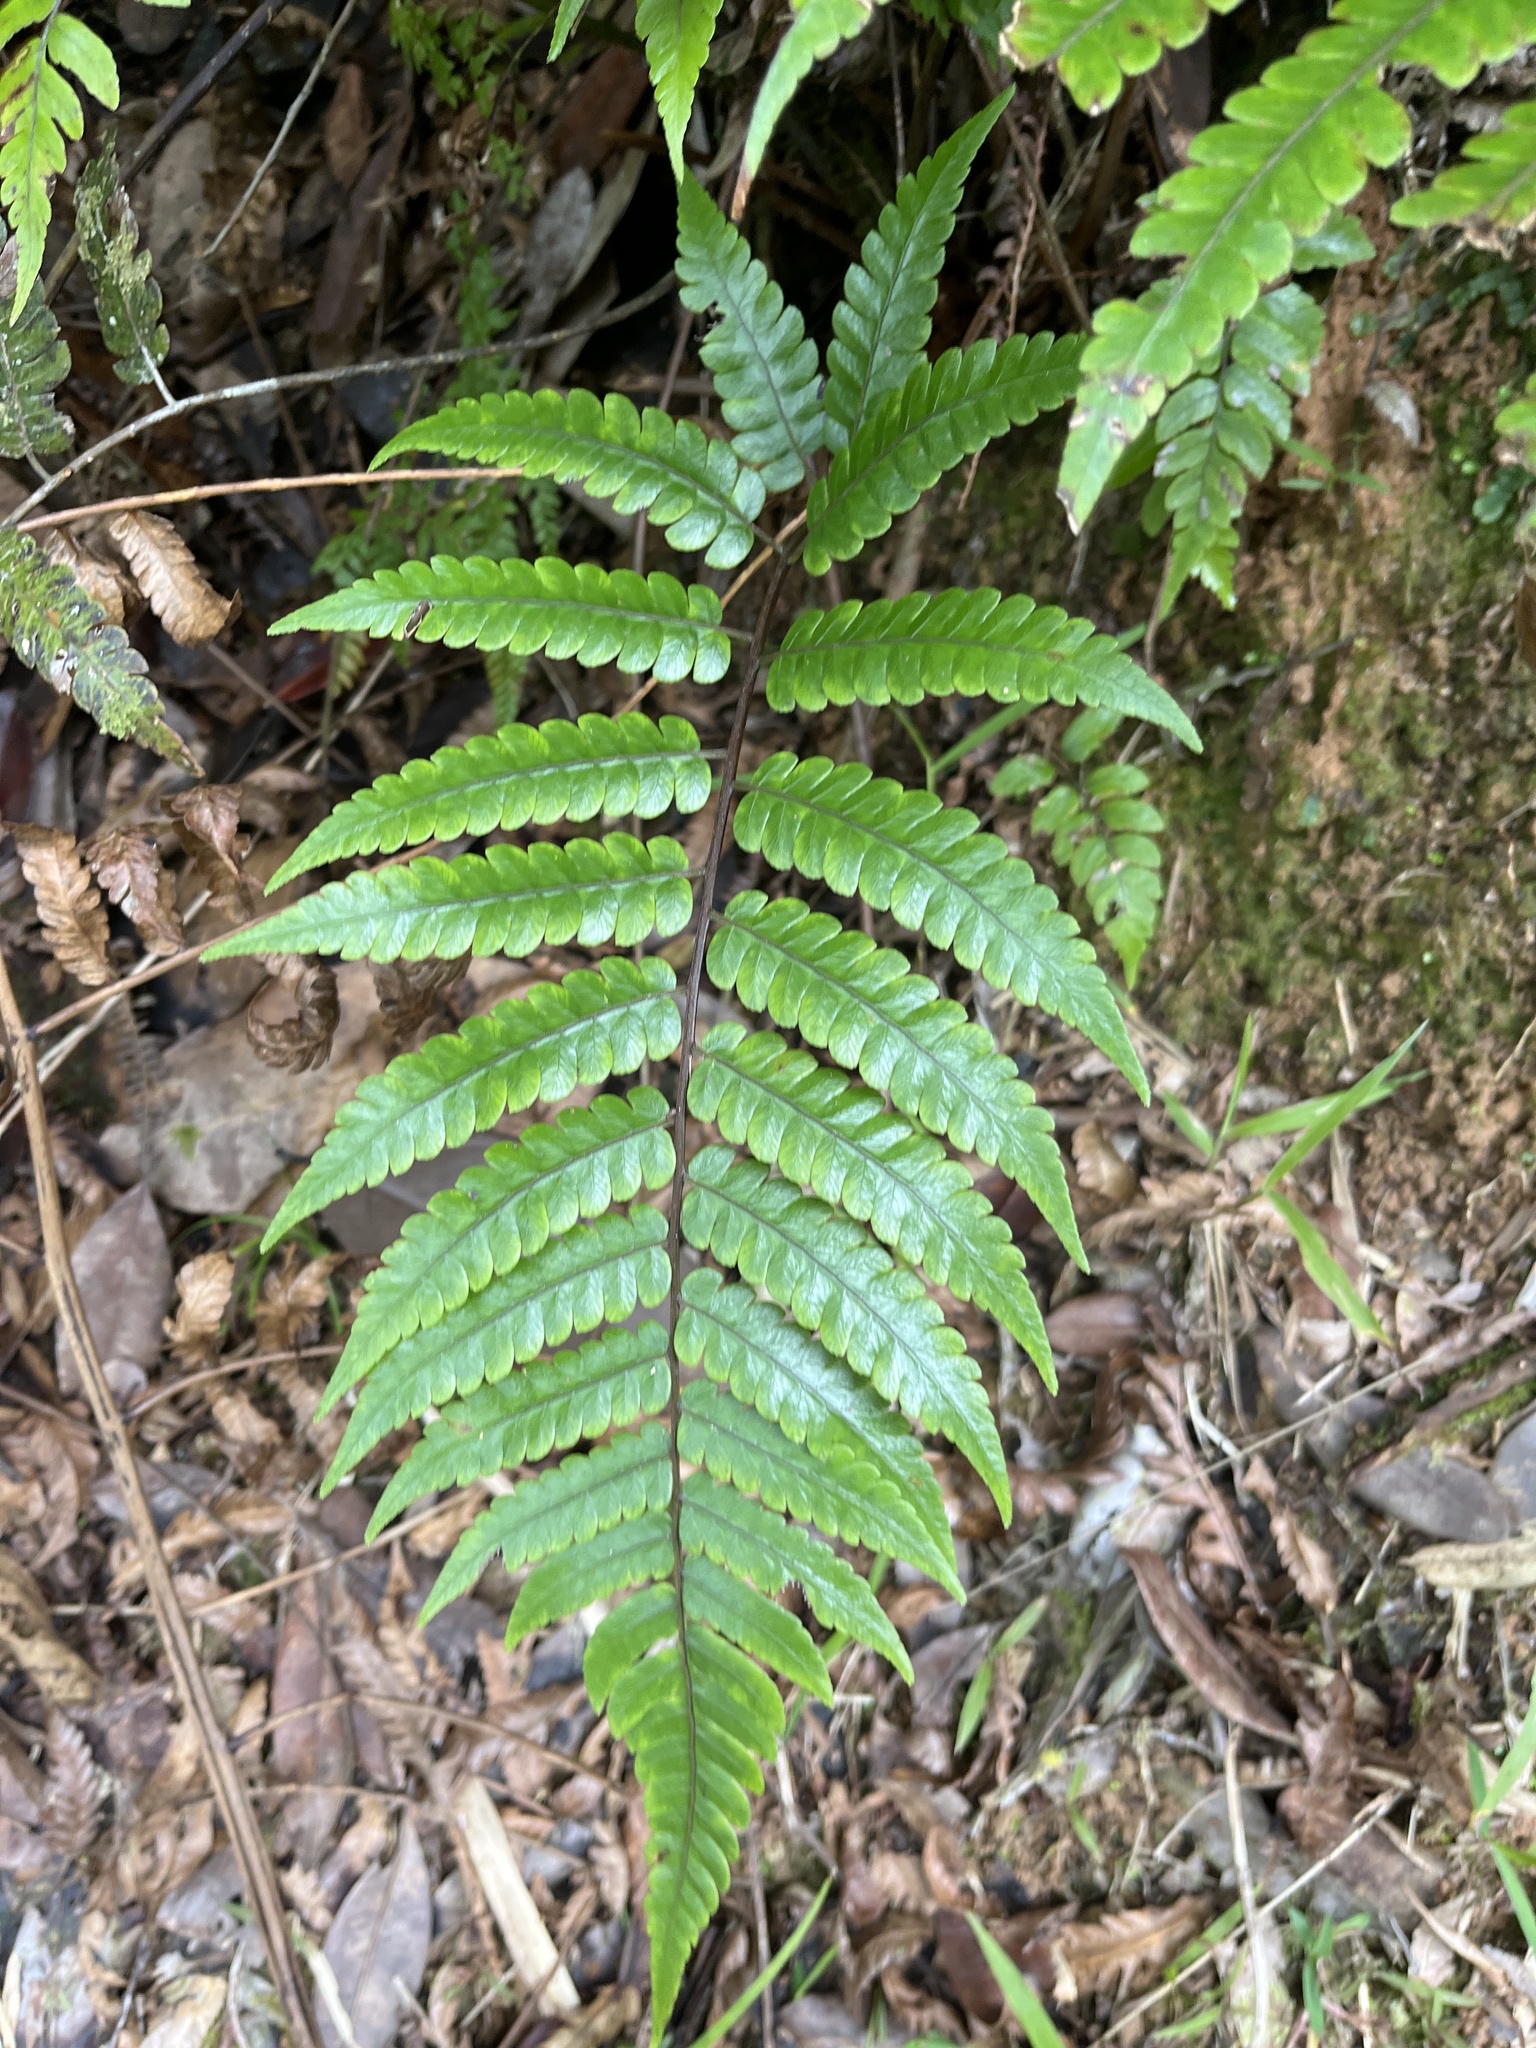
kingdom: Plantae
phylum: Tracheophyta
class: Polypodiopsida
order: Cyatheales
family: Cyatheaceae
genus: Cyathea
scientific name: Cyathea borinquena
